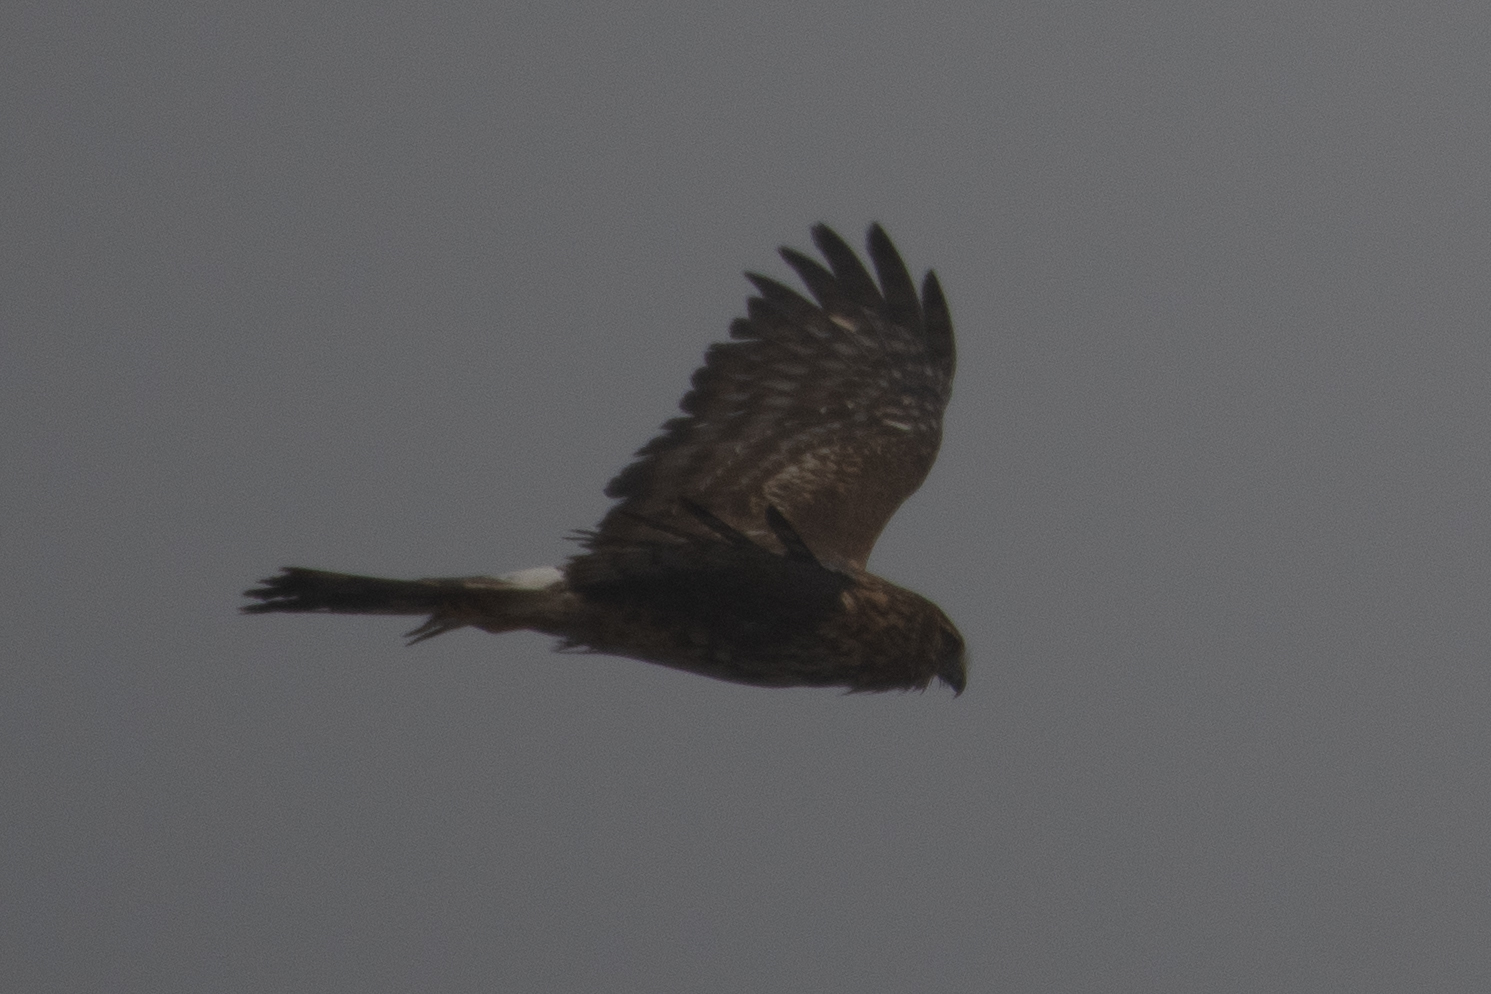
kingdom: Animalia
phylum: Chordata
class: Aves
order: Accipitriformes
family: Accipitridae
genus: Circus
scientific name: Circus cyaneus
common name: Hen harrier
